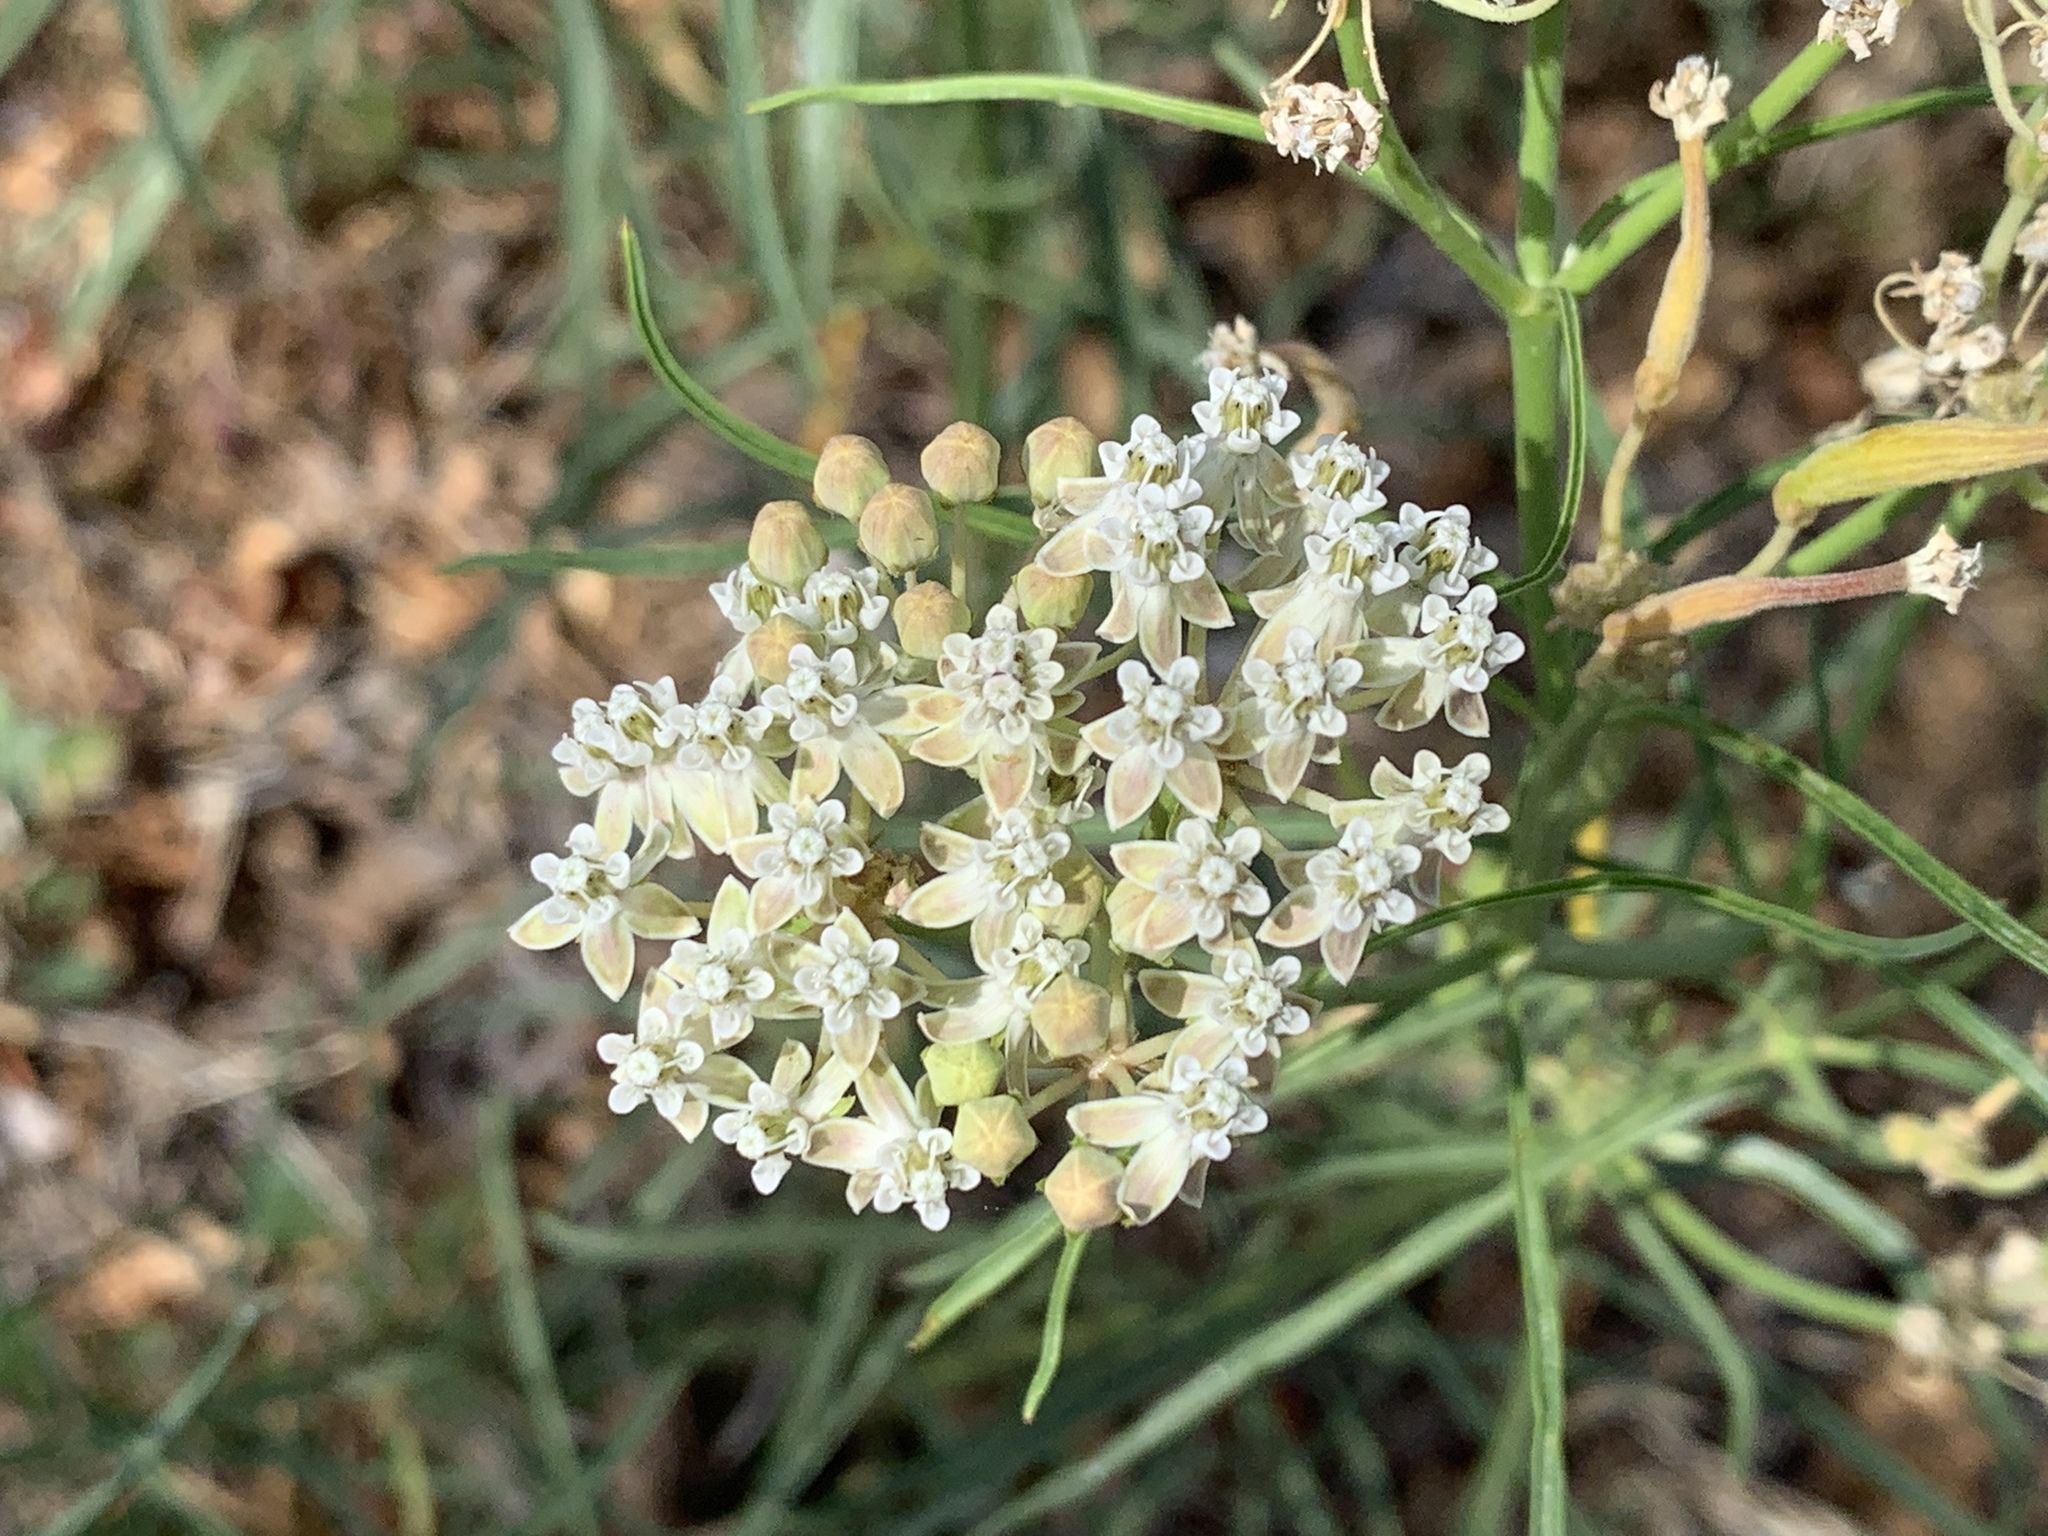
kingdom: Plantae
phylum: Tracheophyta
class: Magnoliopsida
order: Gentianales
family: Apocynaceae
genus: Asclepias
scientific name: Asclepias fascicularis
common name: Mexican milkweed
